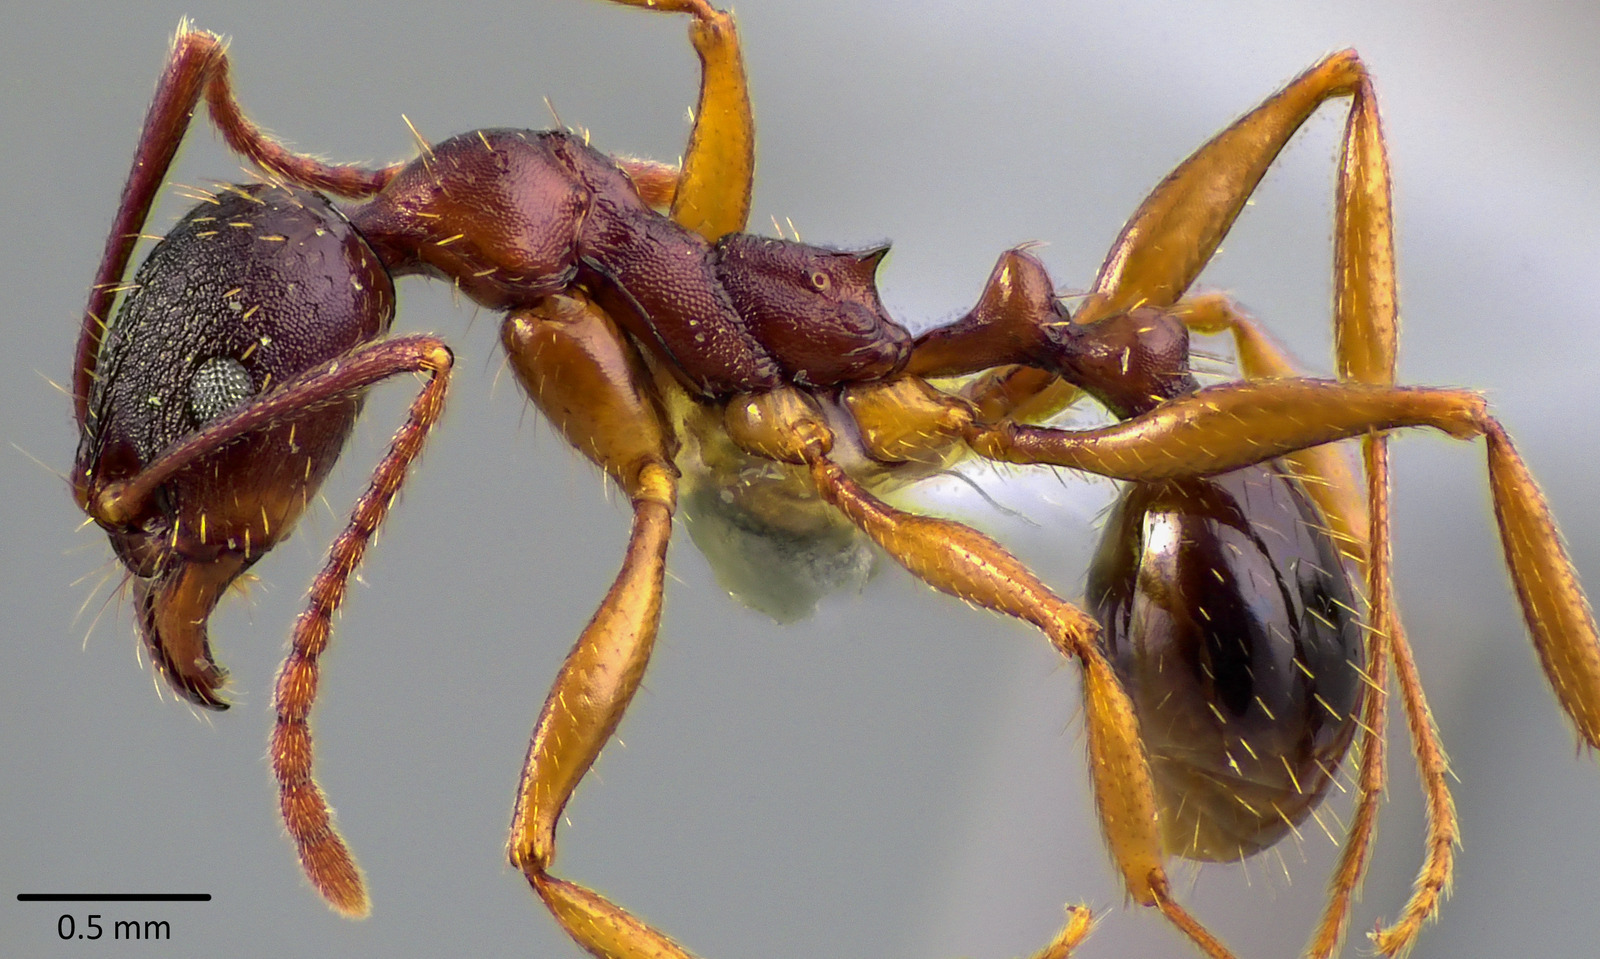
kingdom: Animalia
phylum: Arthropoda
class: Insecta
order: Hymenoptera
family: Formicidae
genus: Aphaenogaster
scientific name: Aphaenogaster rudis
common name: Winnow ant
